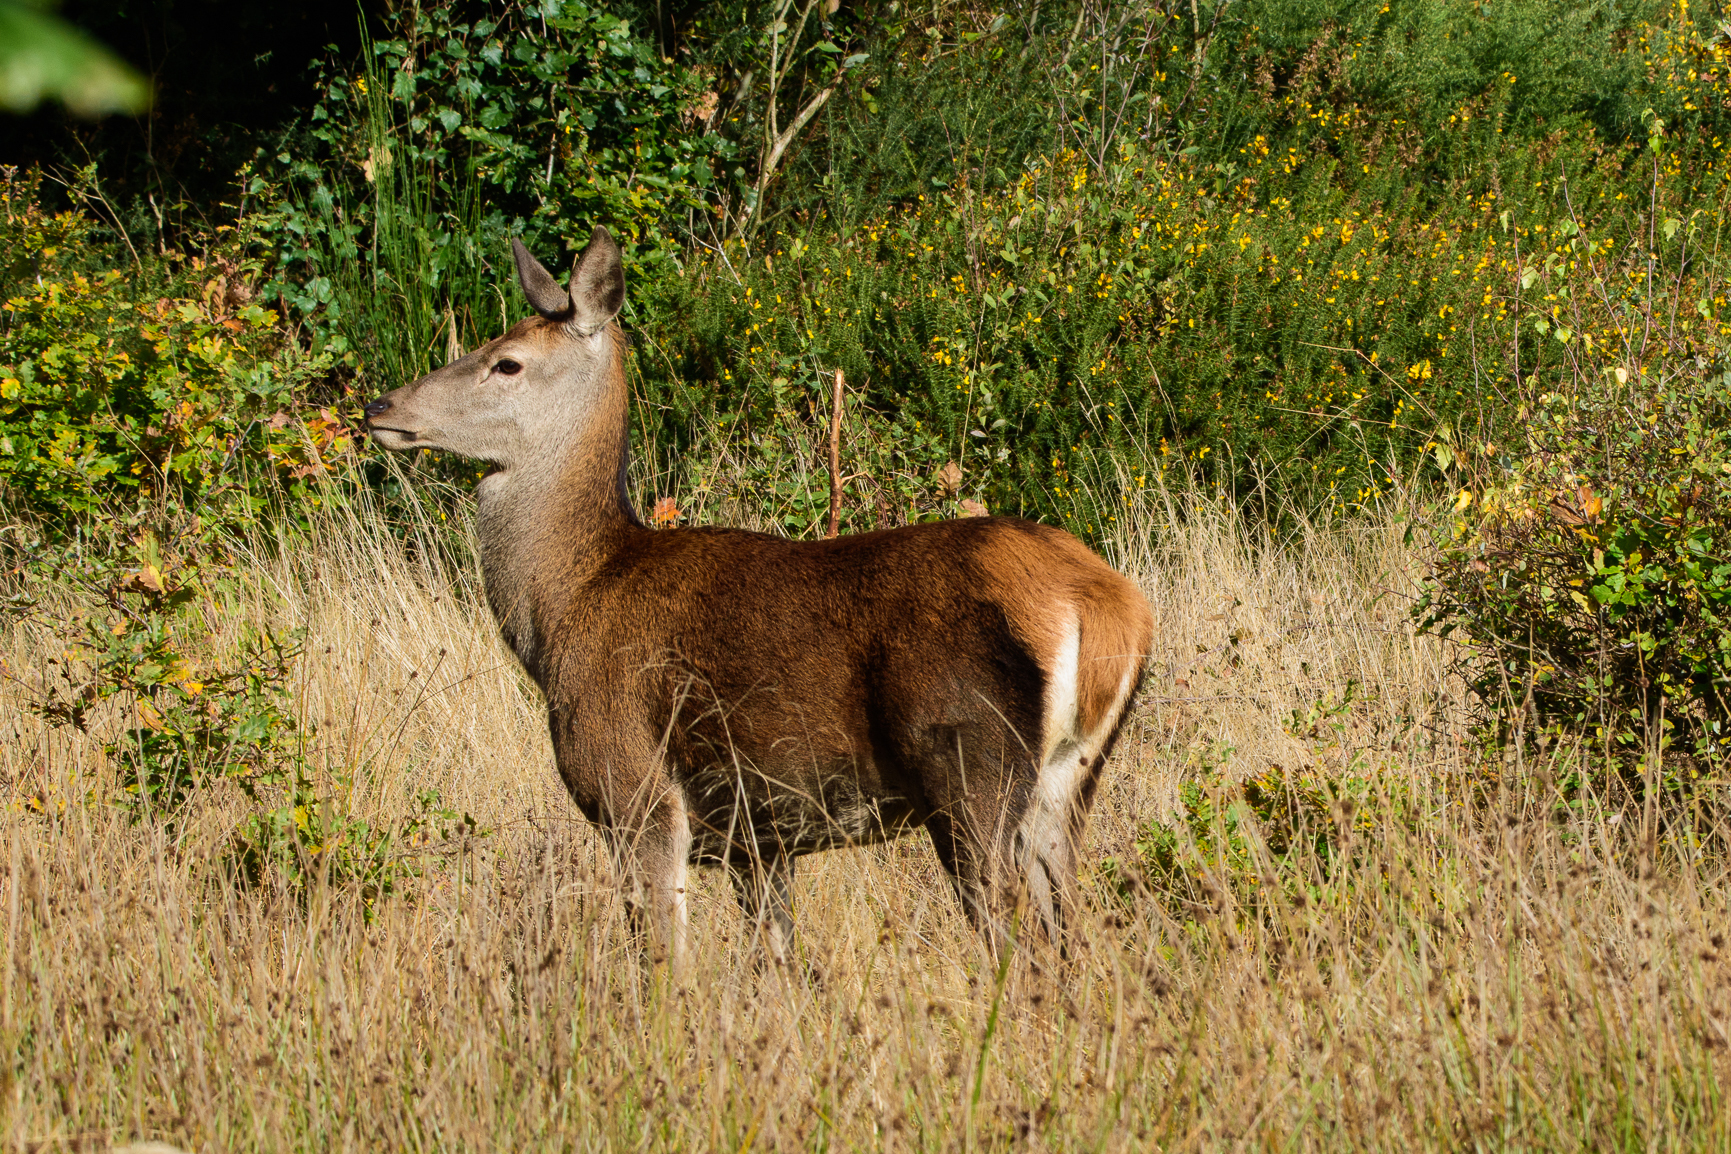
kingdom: Animalia
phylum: Chordata
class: Mammalia
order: Artiodactyla
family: Cervidae
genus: Cervus
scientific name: Cervus elaphus
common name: Red deer
